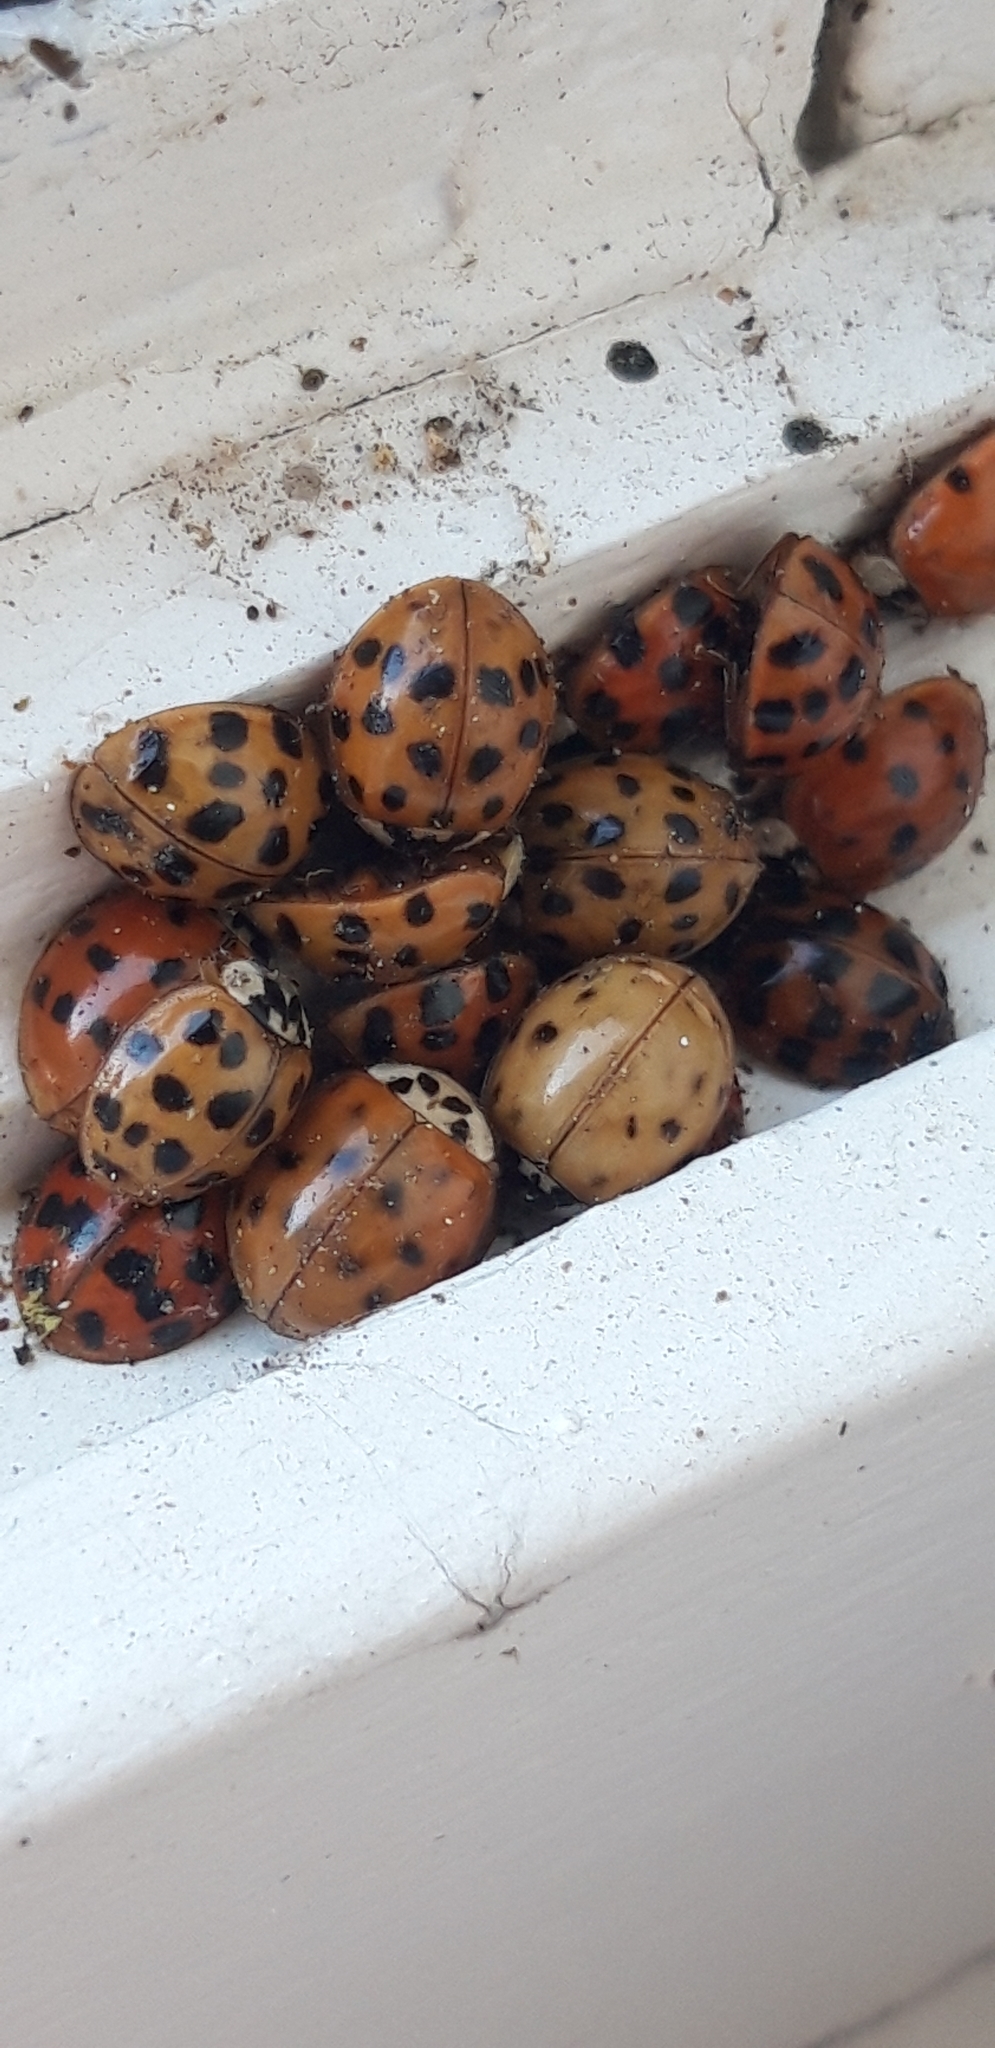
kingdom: Animalia
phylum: Arthropoda
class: Insecta
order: Coleoptera
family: Coccinellidae
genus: Harmonia
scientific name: Harmonia axyridis
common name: Harlequin ladybird
